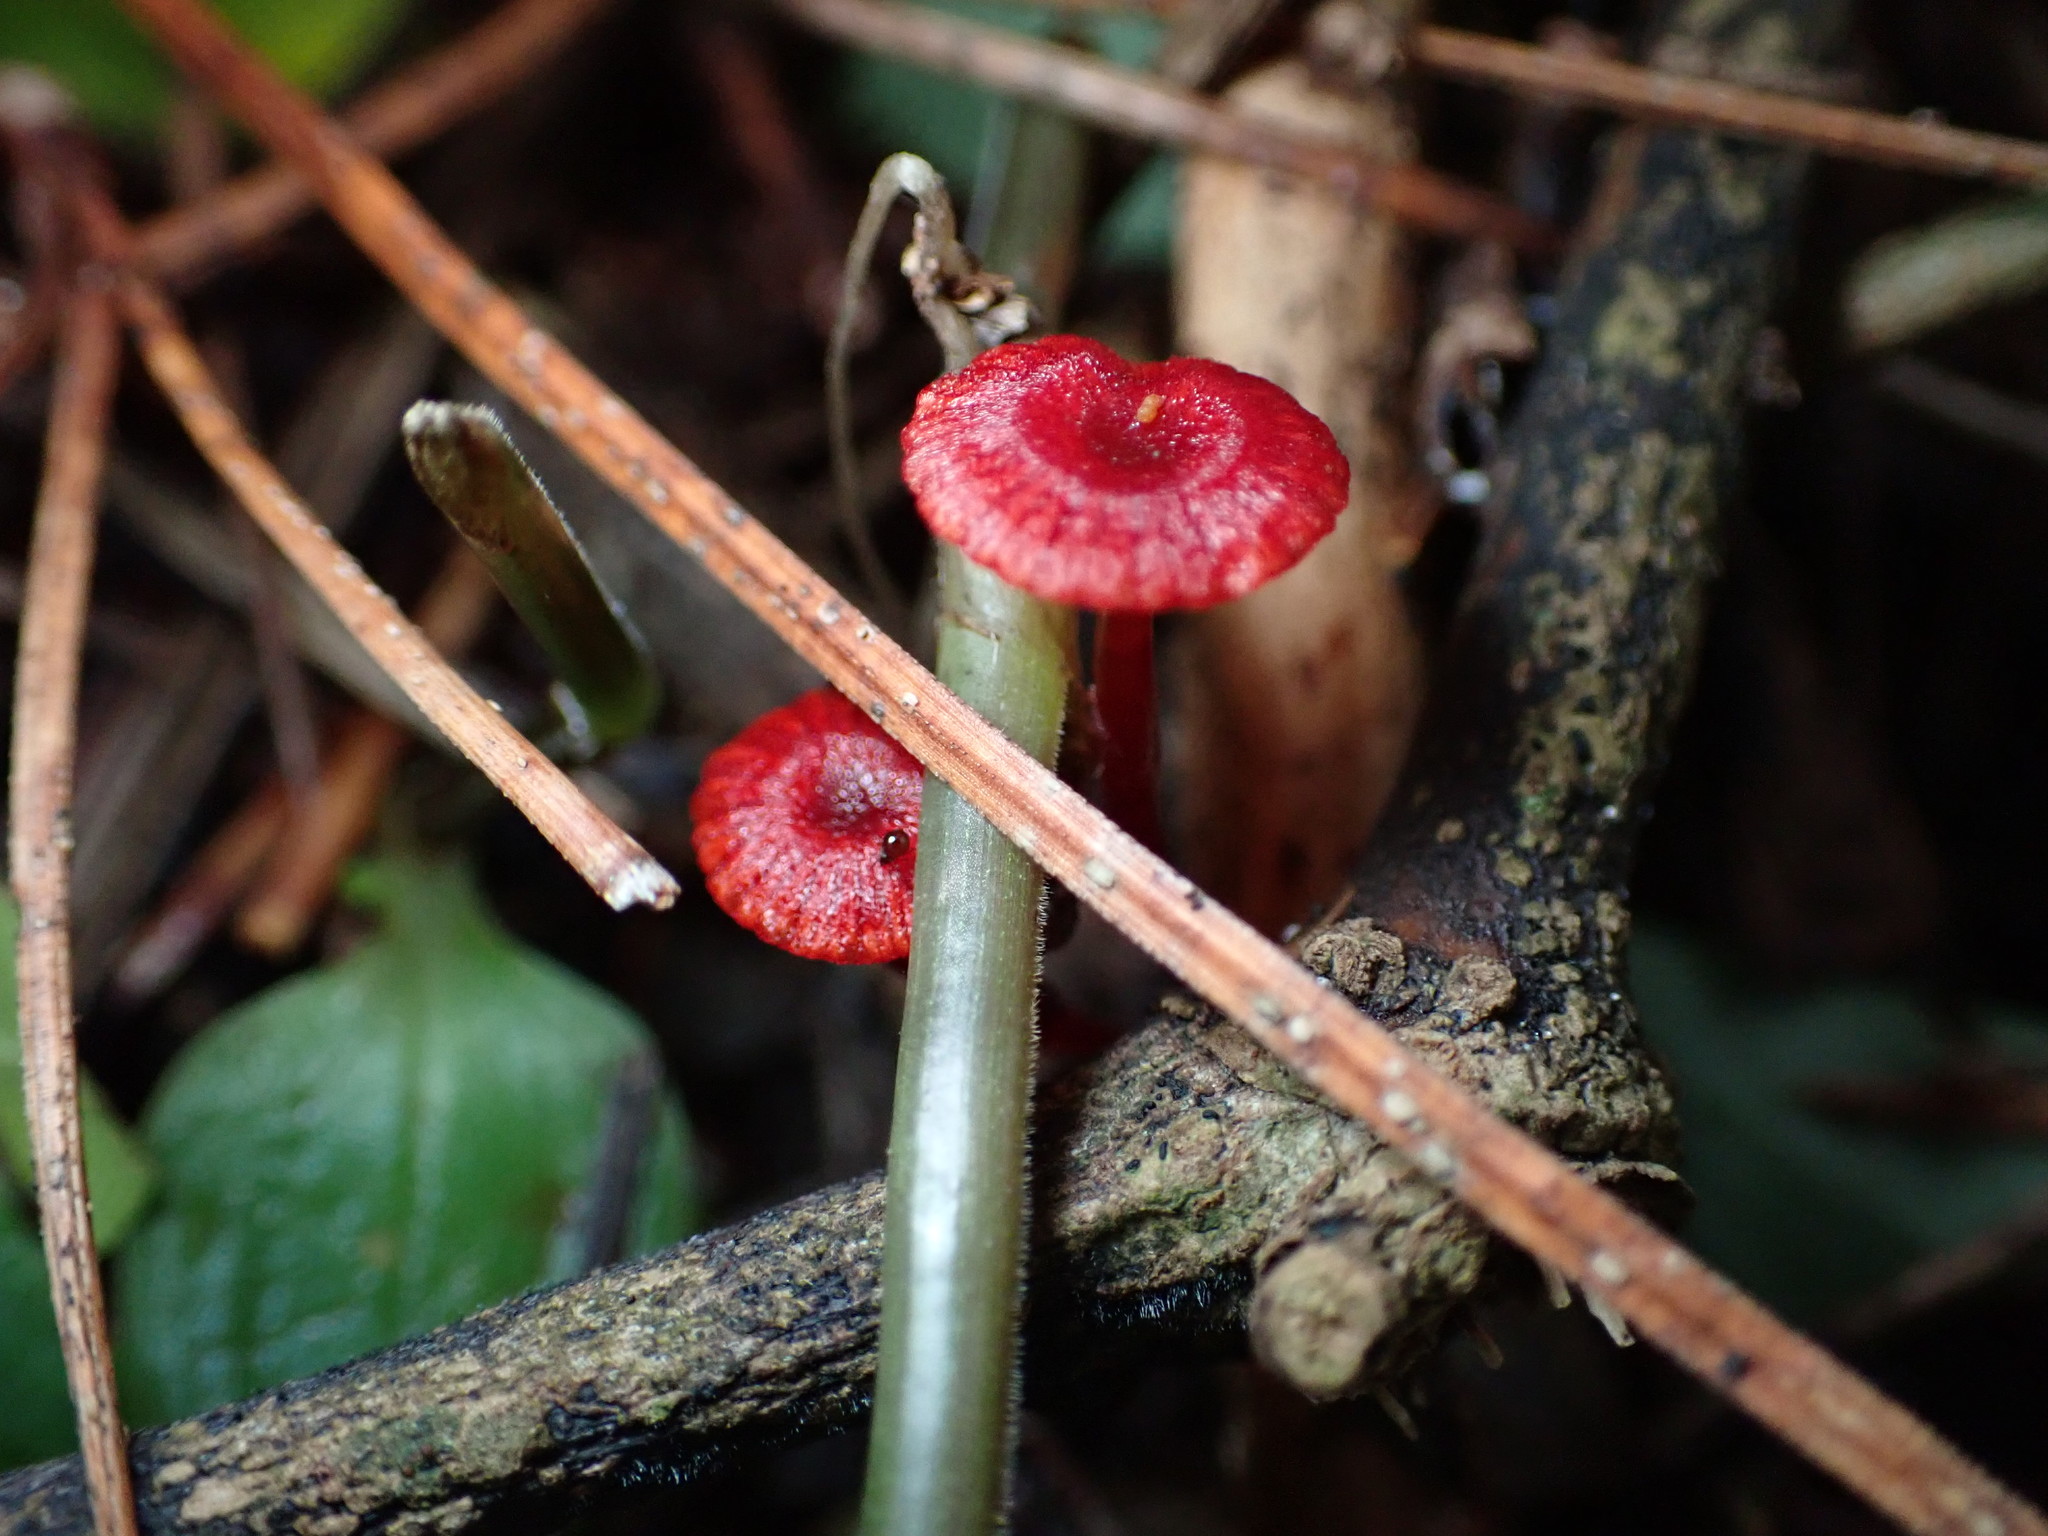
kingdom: Fungi
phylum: Basidiomycota
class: Agaricomycetes
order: Agaricales
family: Mycenaceae
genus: Cruentomycena
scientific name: Cruentomycena viscidocruenta
